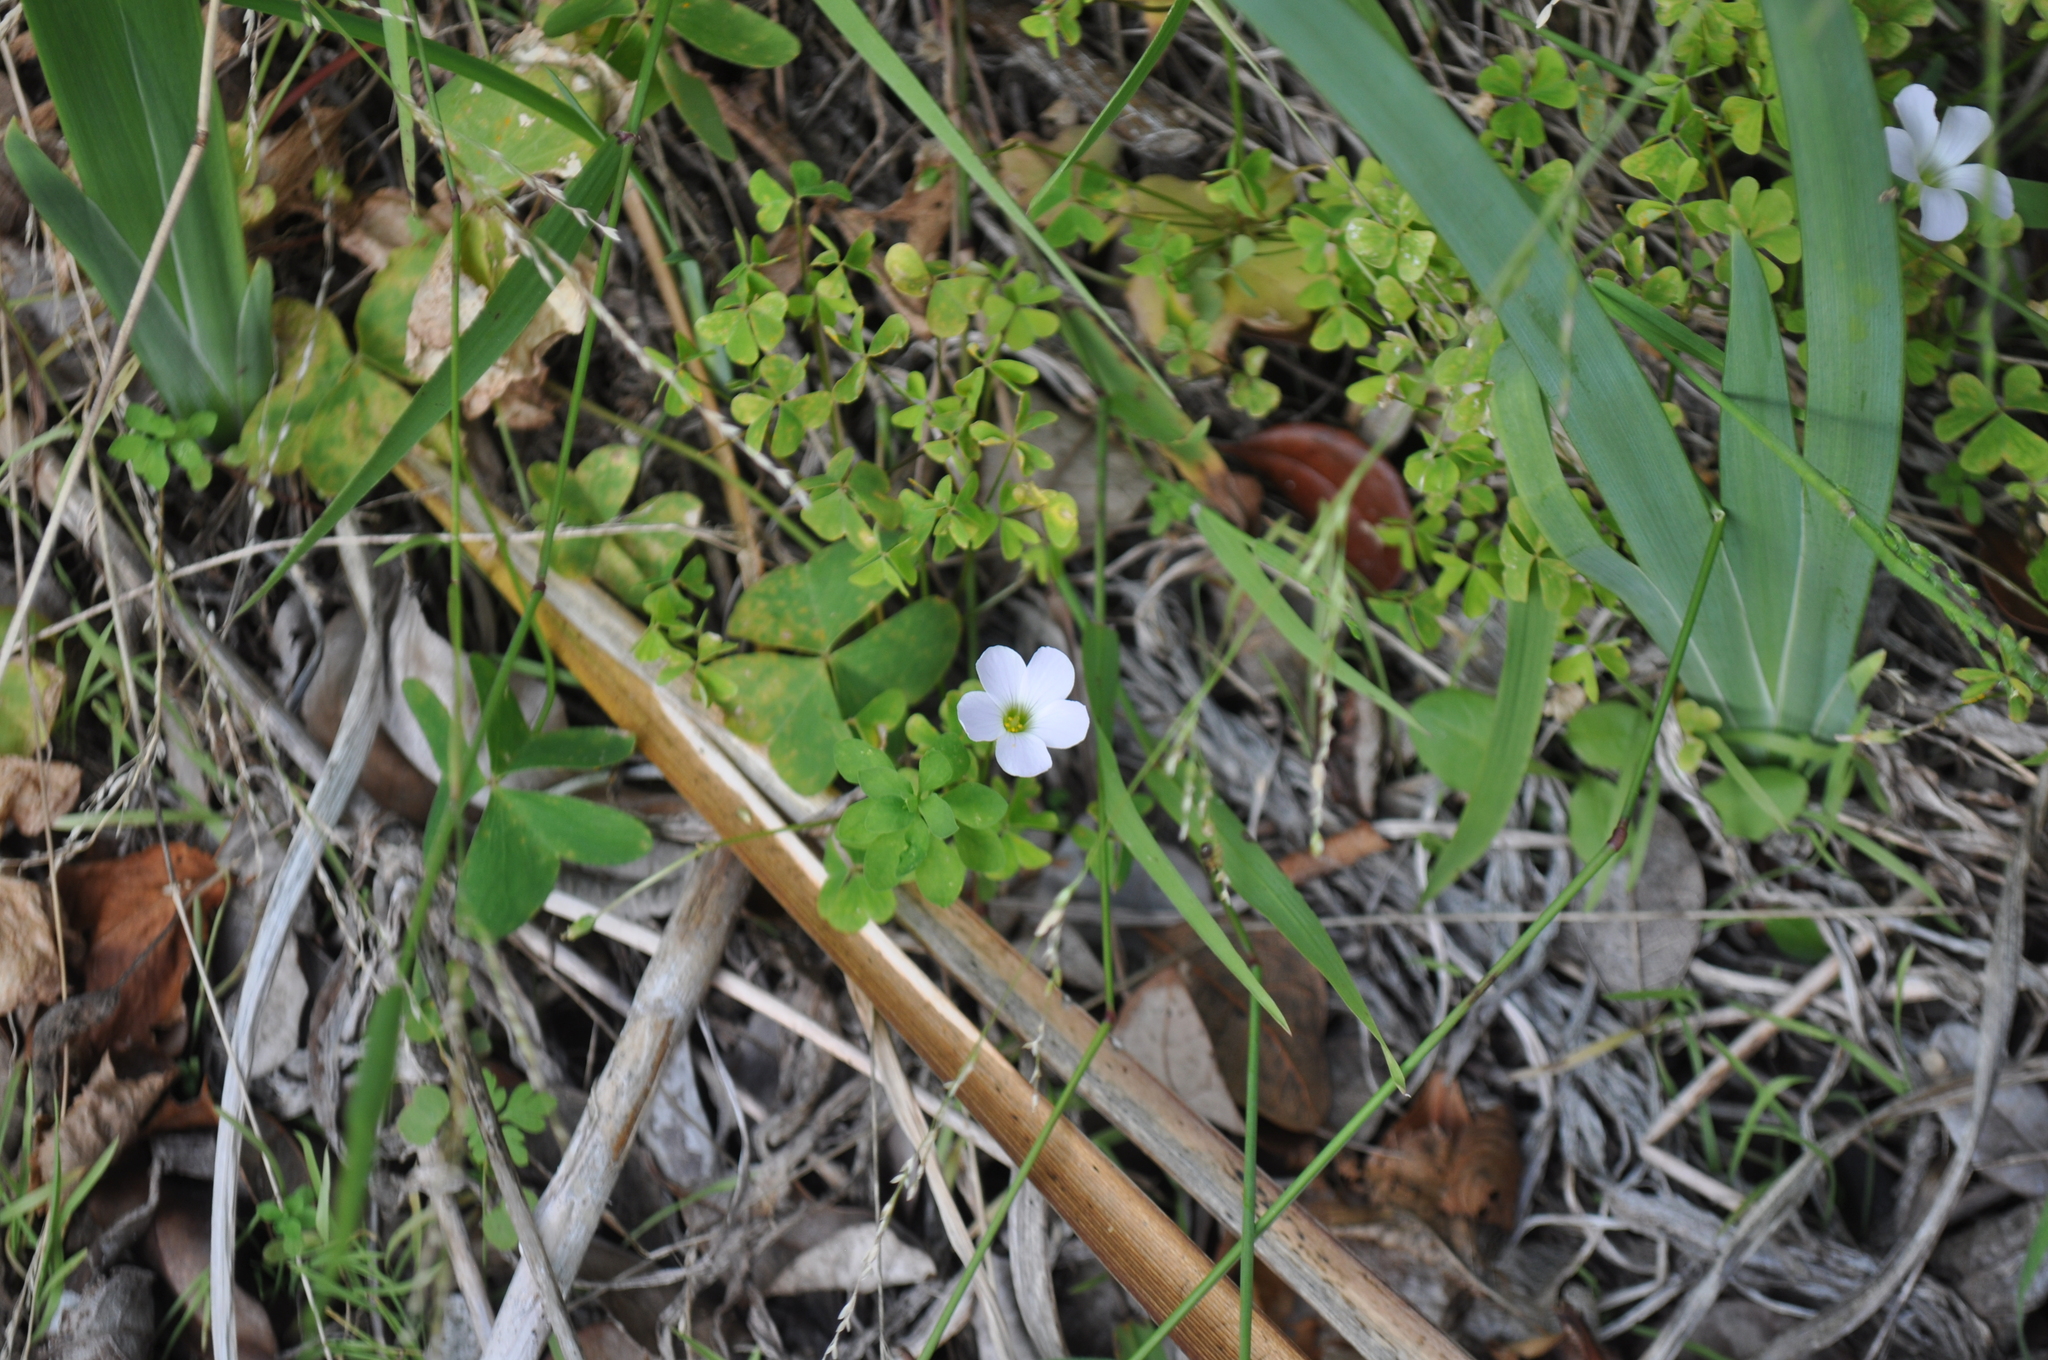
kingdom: Plantae
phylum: Tracheophyta
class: Magnoliopsida
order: Oxalidales
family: Oxalidaceae
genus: Oxalis
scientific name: Oxalis incarnata
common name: Pale pink-sorrel
